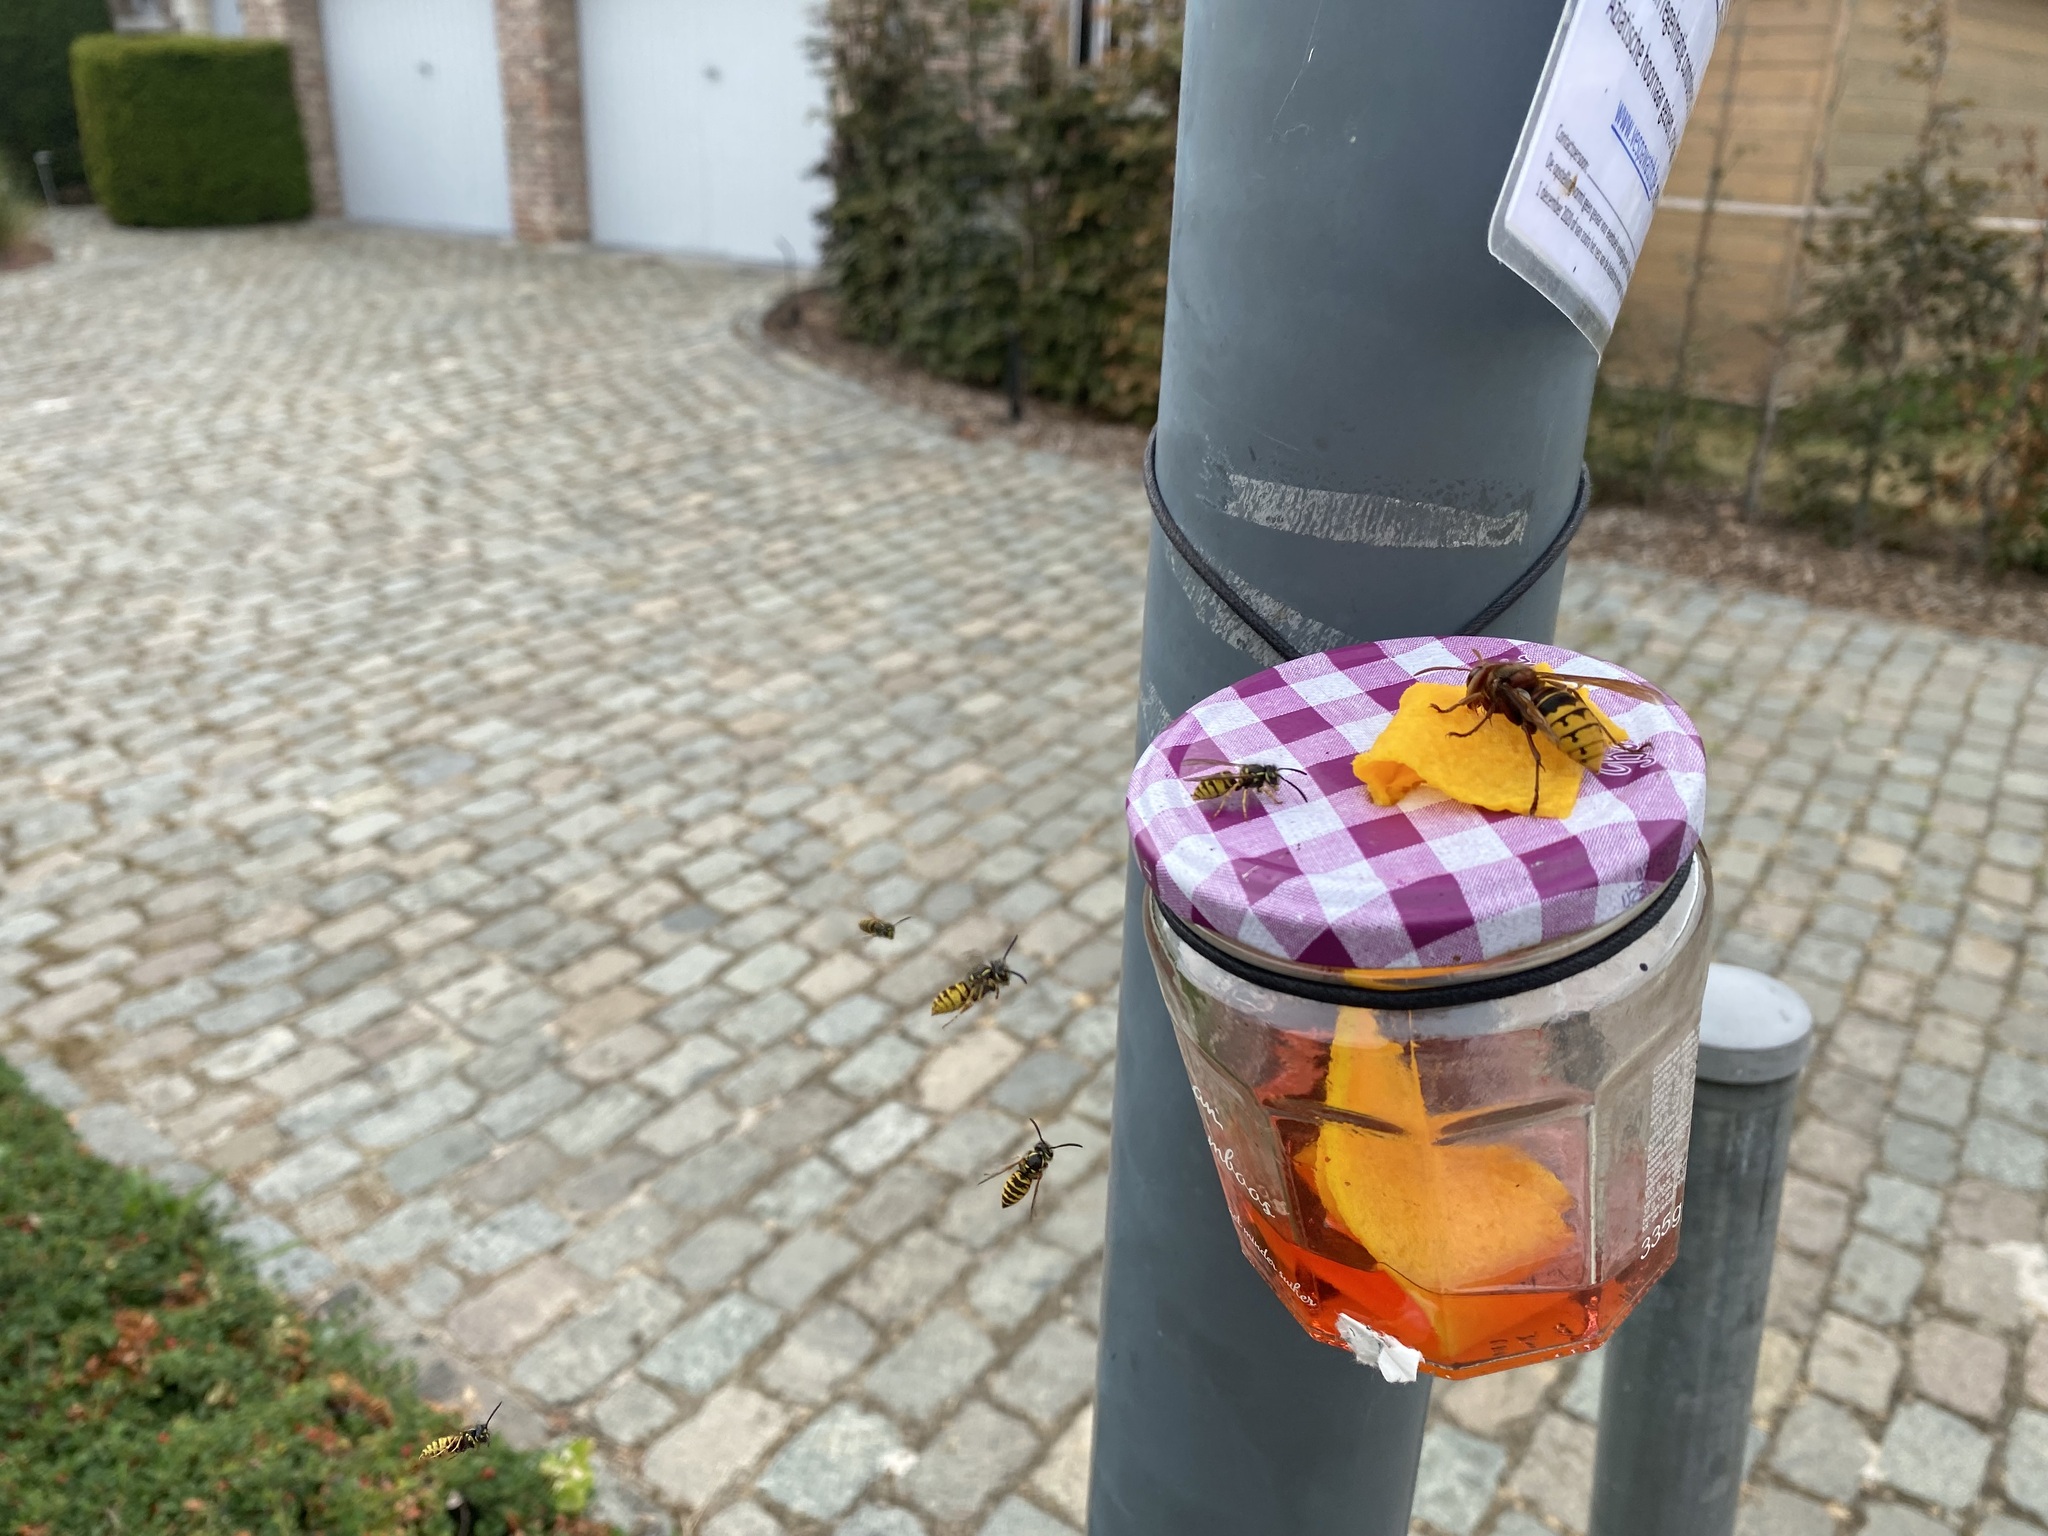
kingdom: Animalia
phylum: Arthropoda
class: Insecta
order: Hymenoptera
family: Vespidae
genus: Vespa
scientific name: Vespa crabro
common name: Hornet
